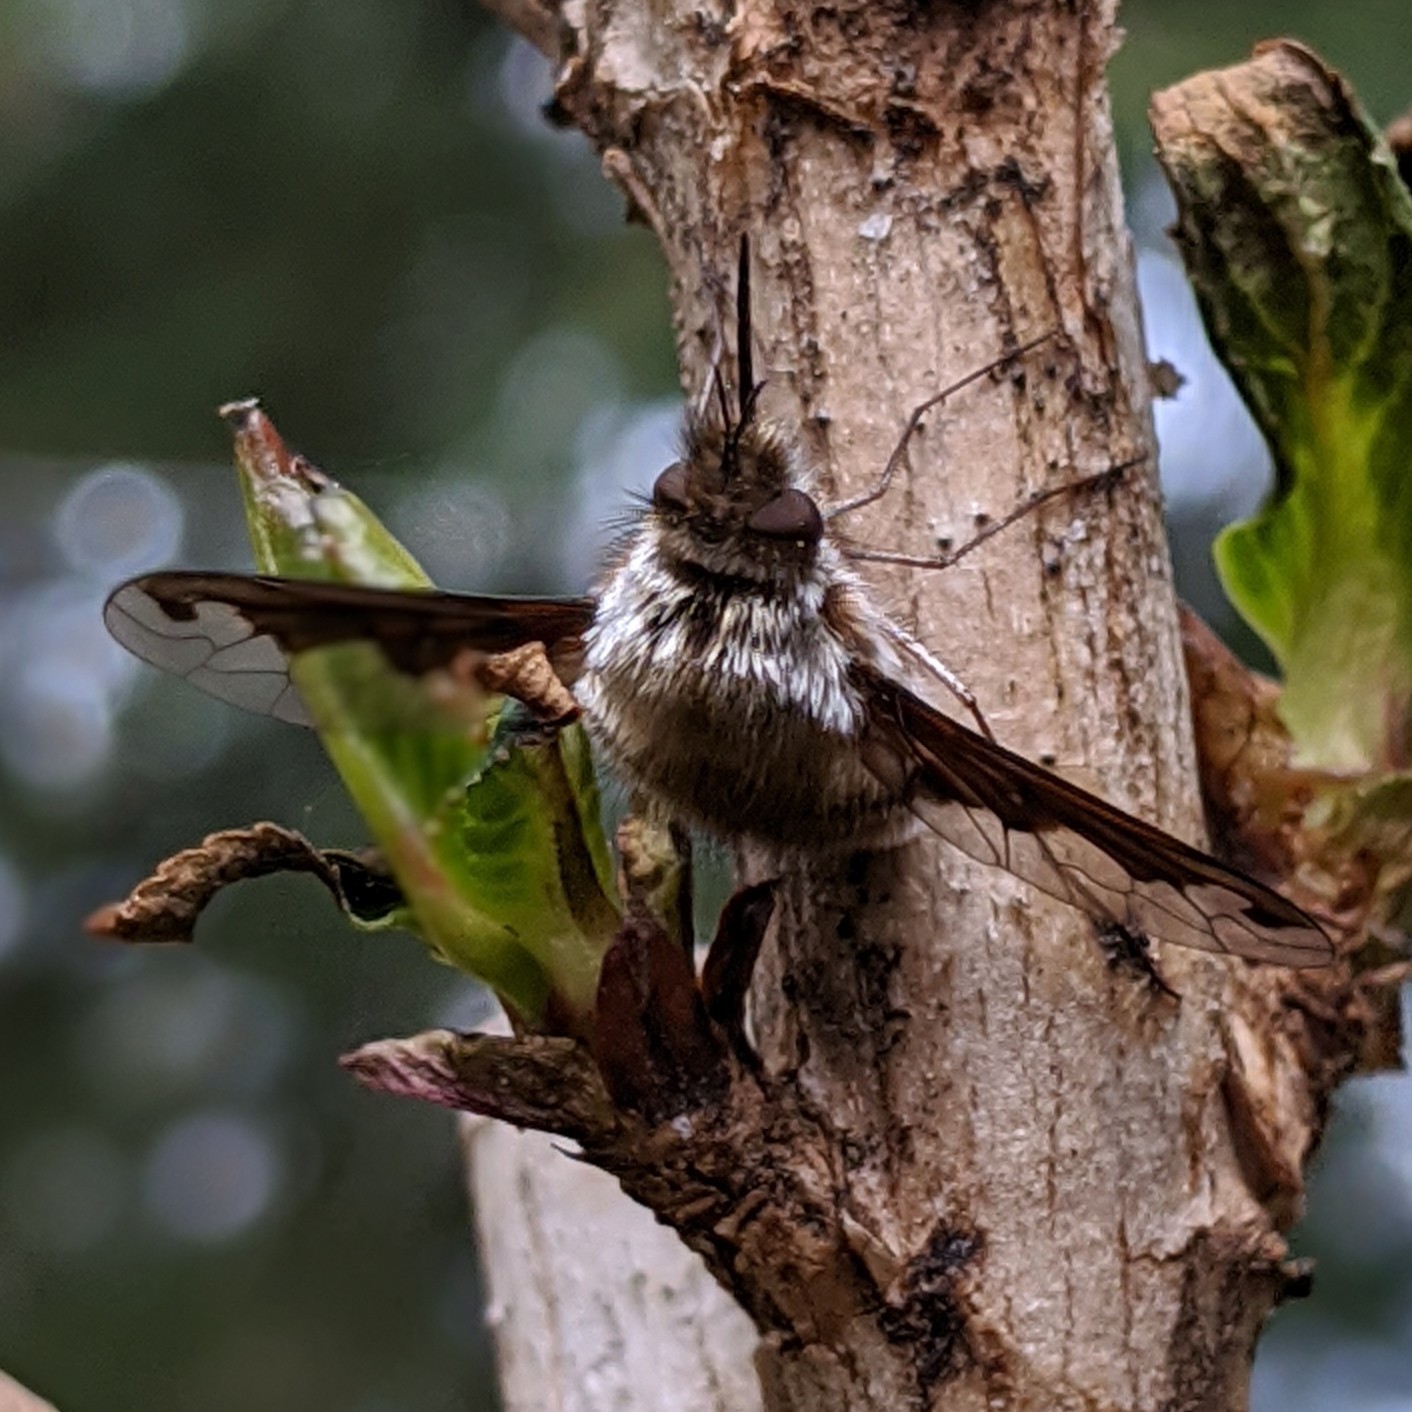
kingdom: Animalia
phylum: Arthropoda
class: Insecta
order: Diptera
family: Bombyliidae
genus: Bombylius
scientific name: Bombylius major
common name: Bee fly
